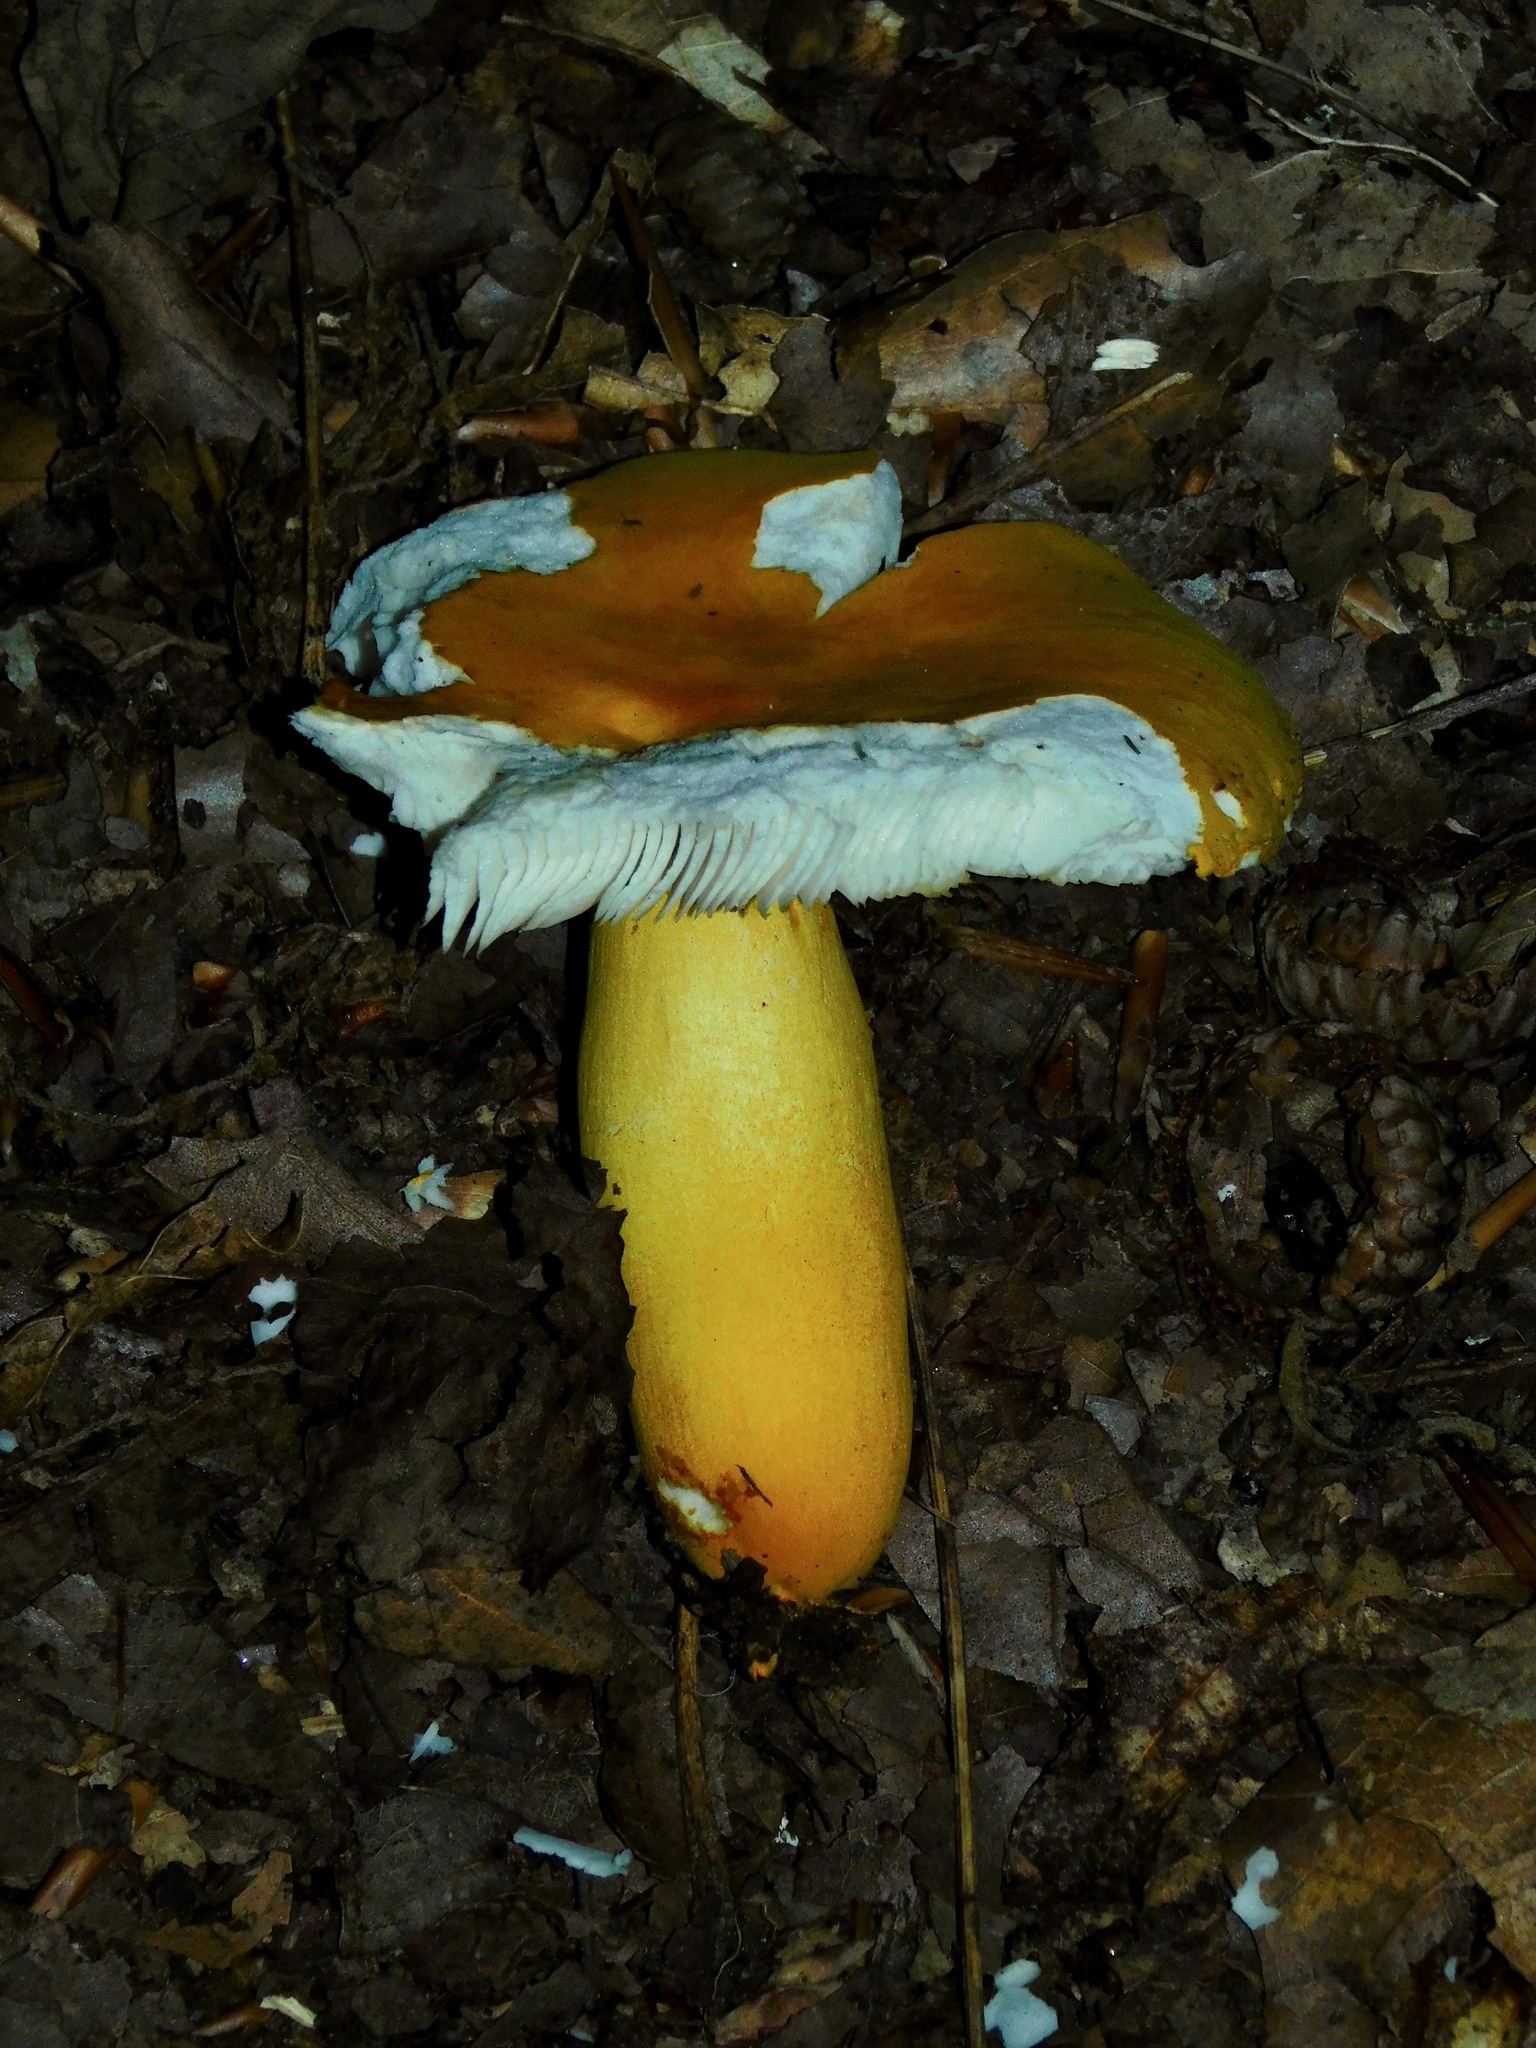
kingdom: Fungi
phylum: Basidiomycota
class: Agaricomycetes
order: Russulales
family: Russulaceae
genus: Russula
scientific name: Russula flavida
